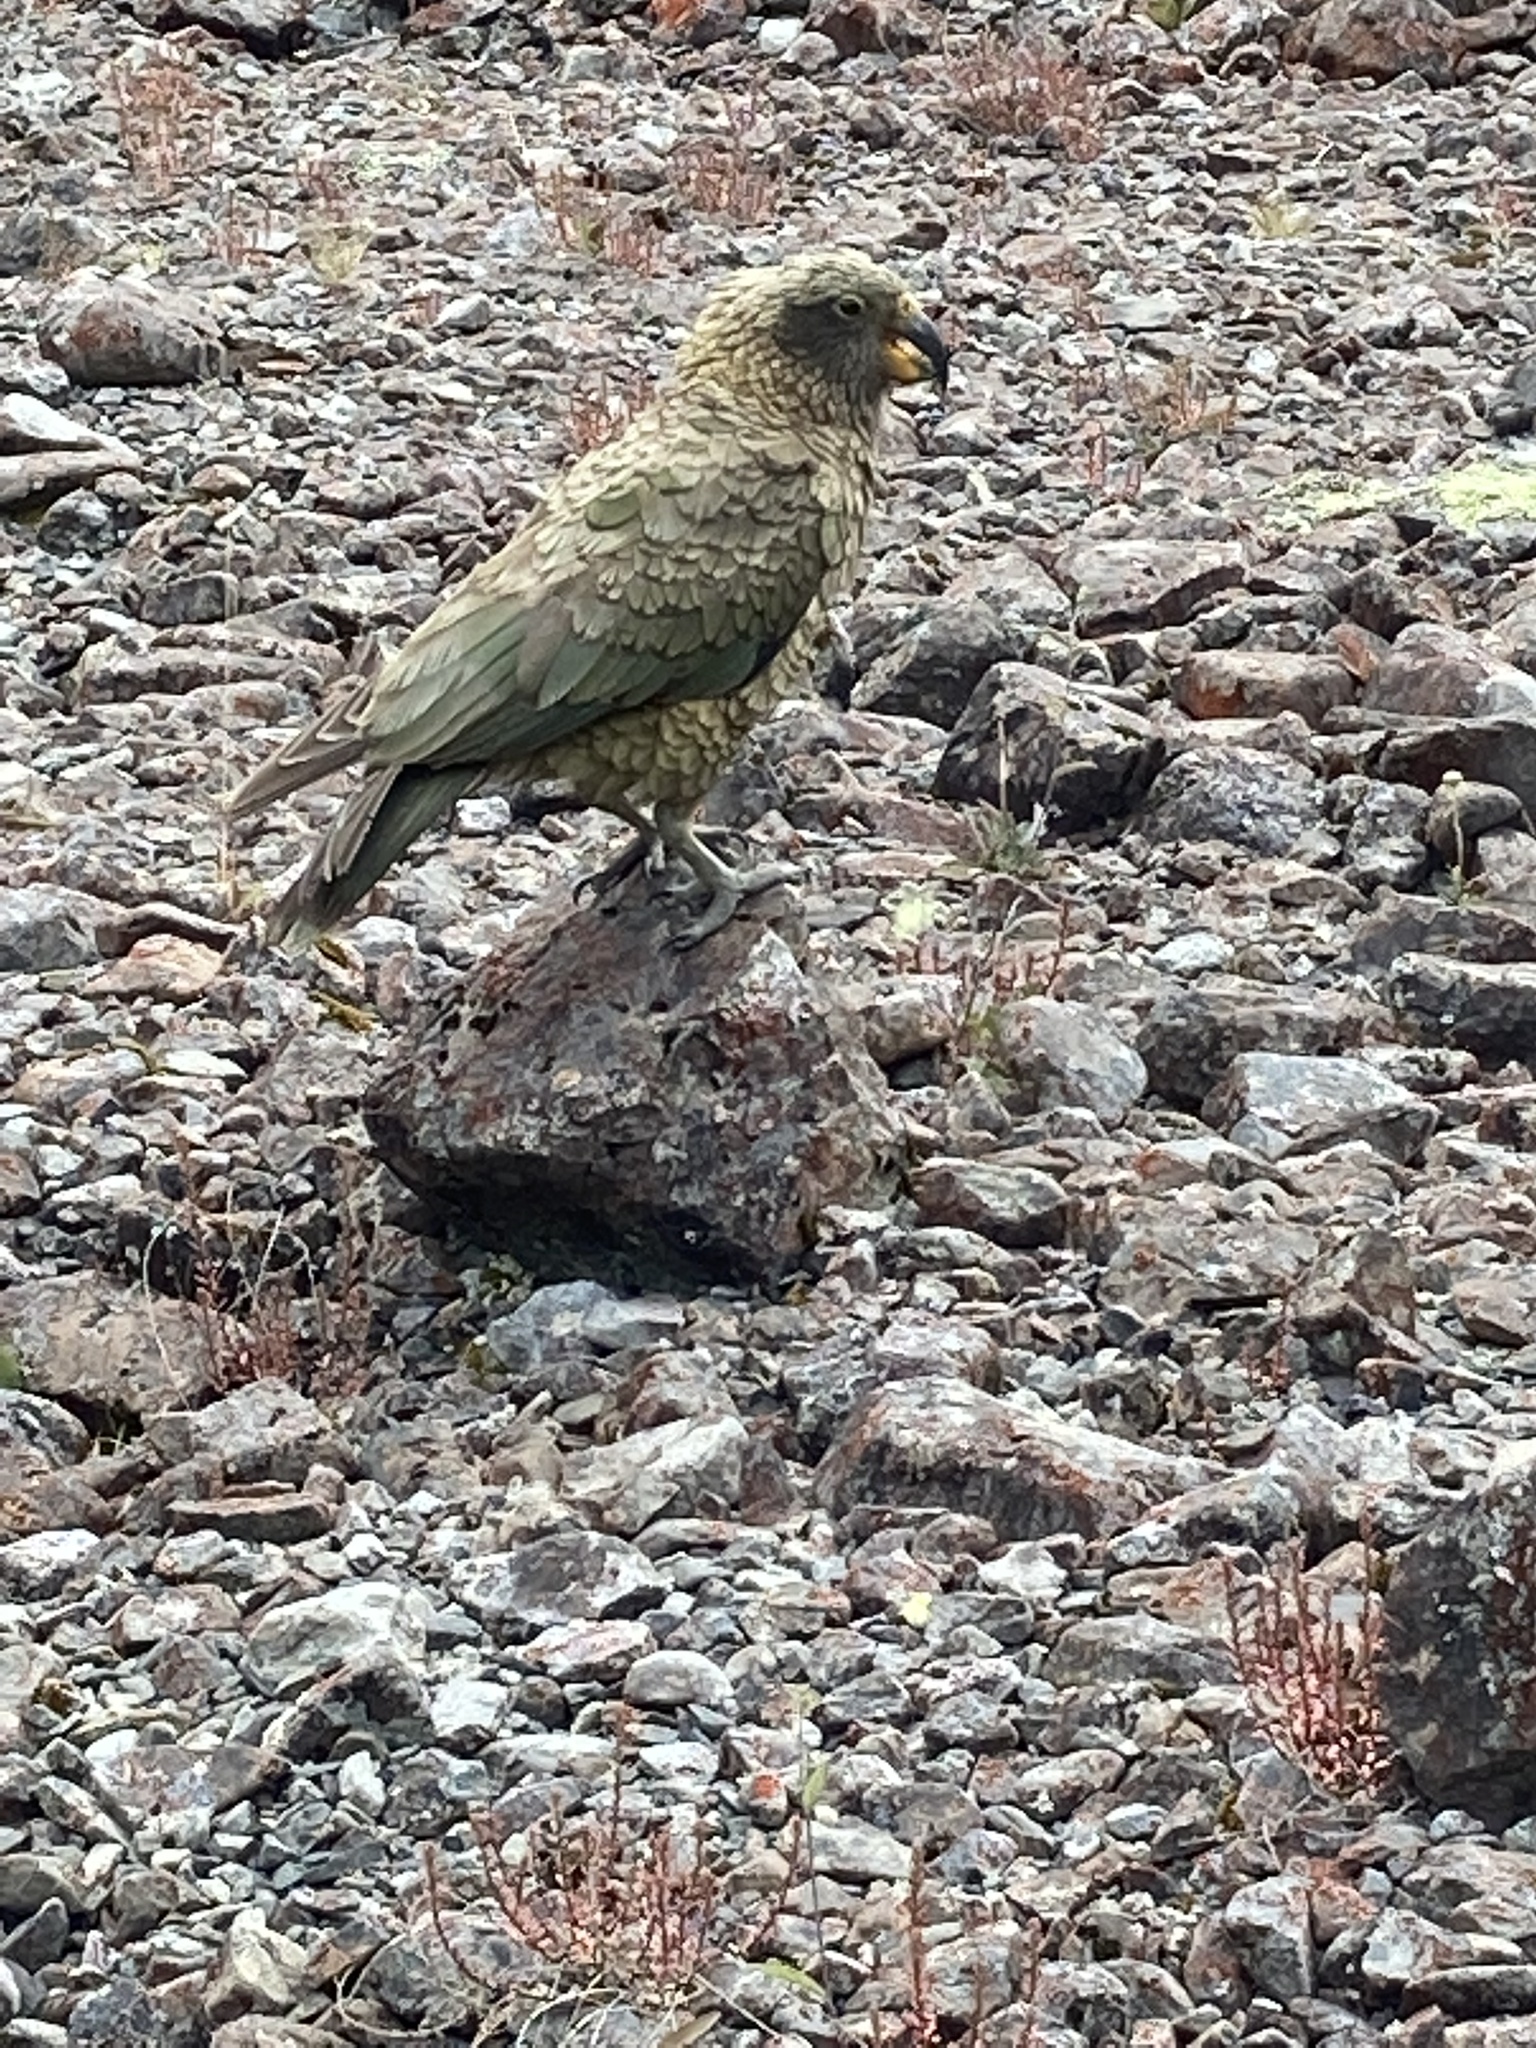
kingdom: Animalia
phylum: Chordata
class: Aves
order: Psittaciformes
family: Psittacidae
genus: Nestor
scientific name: Nestor notabilis
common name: Kea
